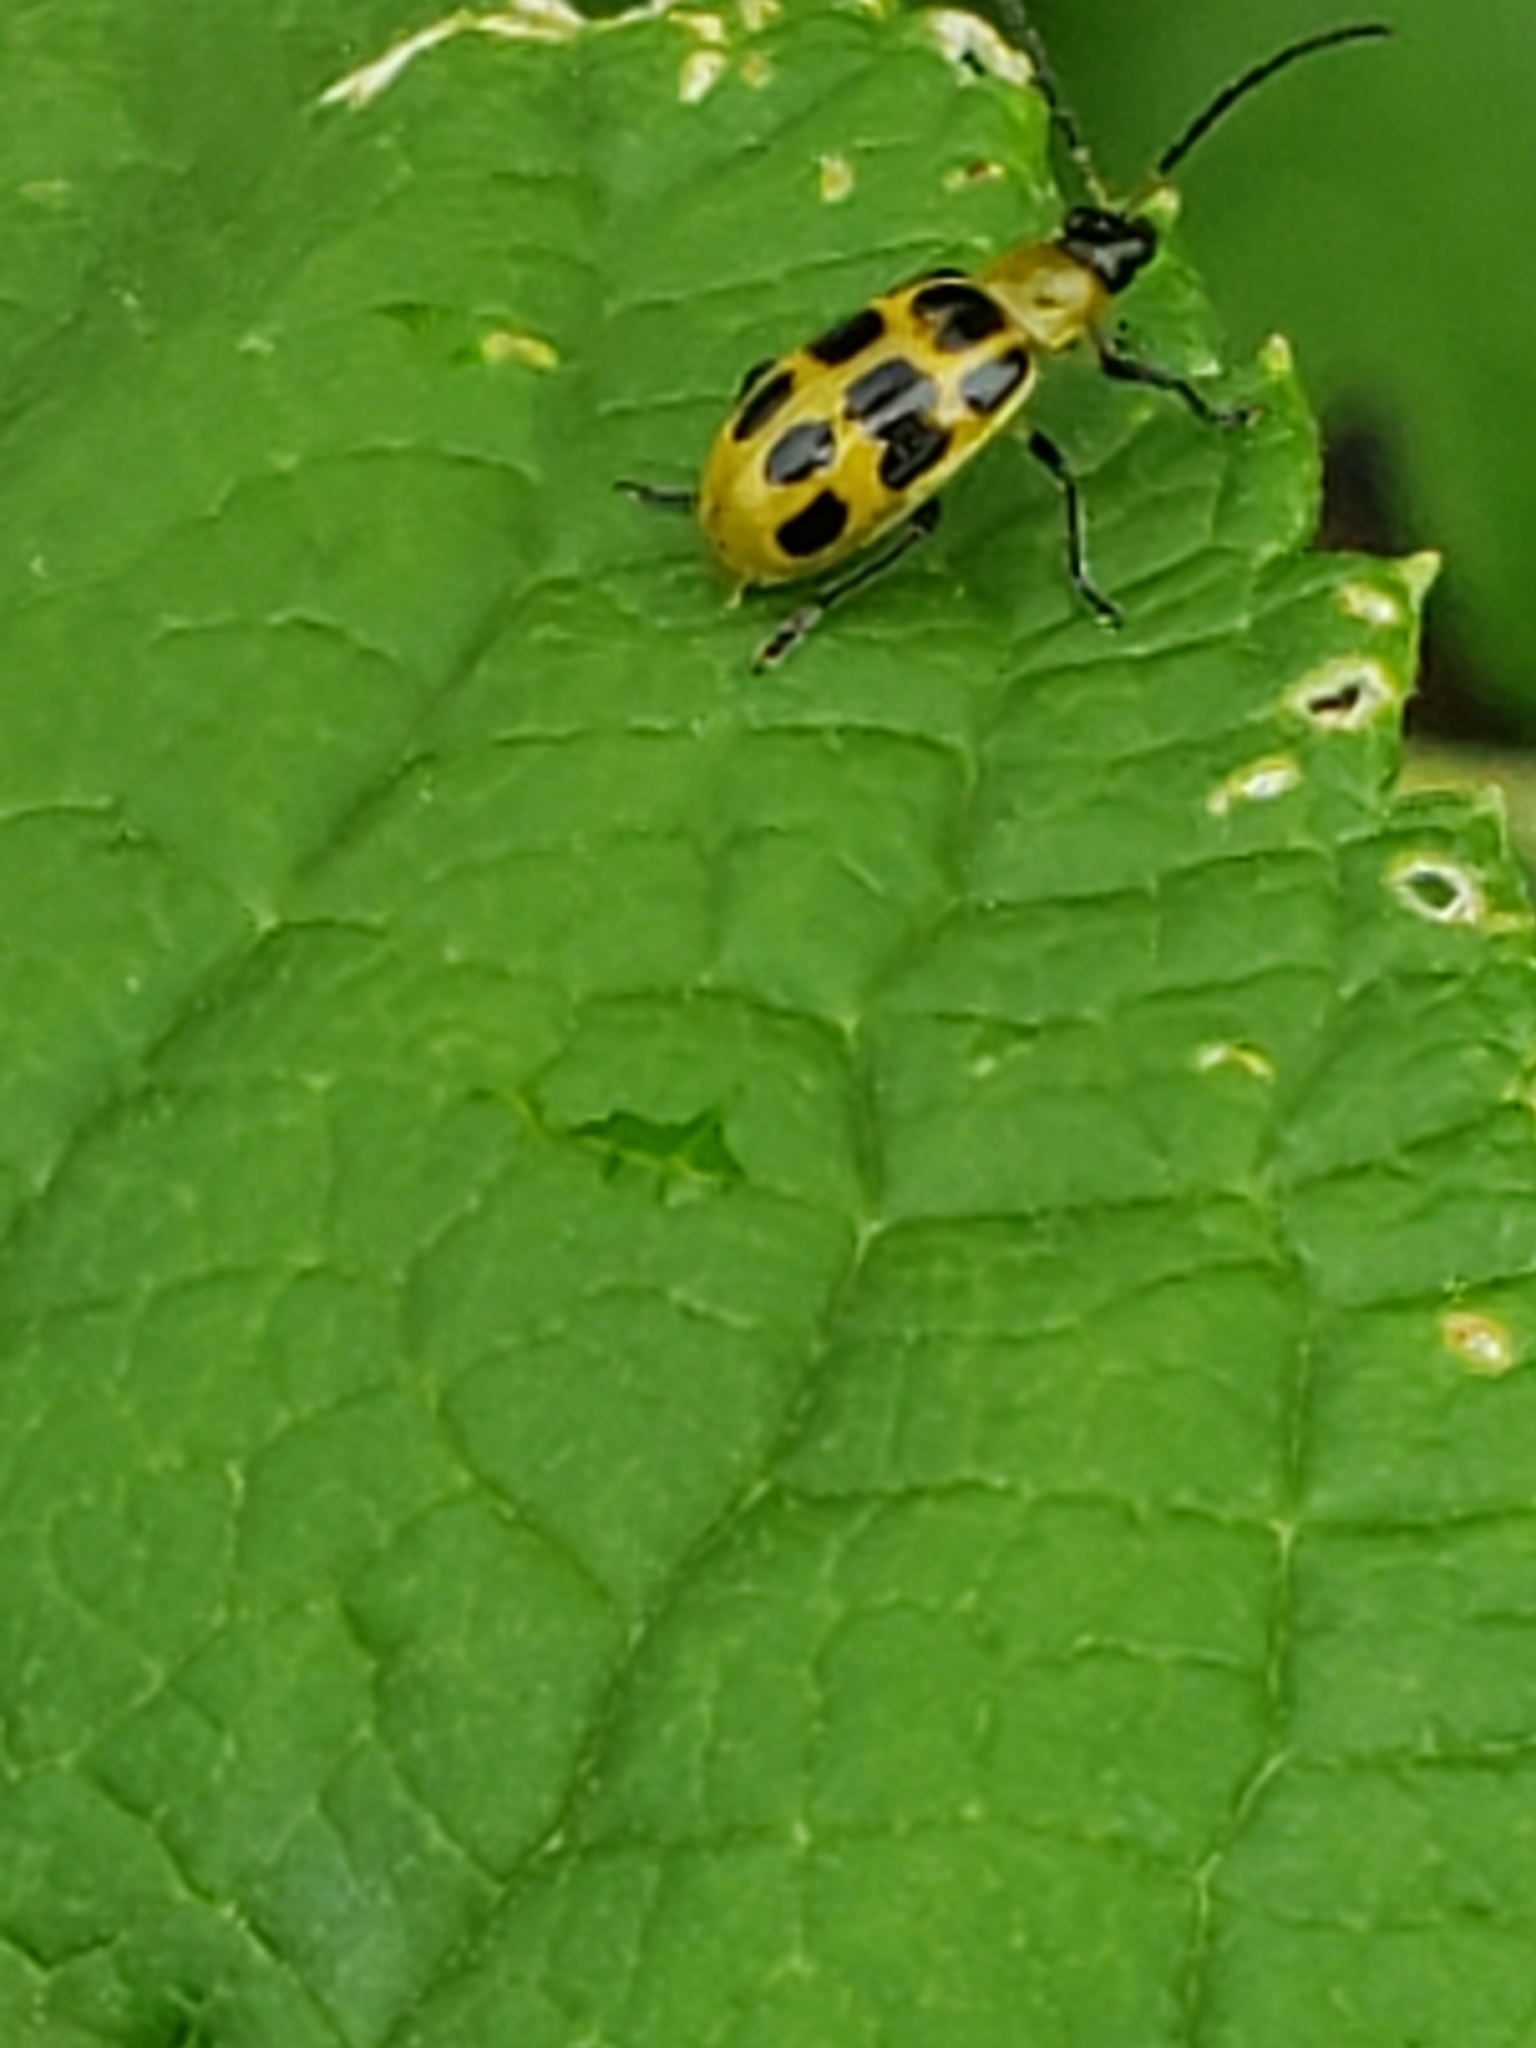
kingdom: Animalia
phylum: Arthropoda
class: Insecta
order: Coleoptera
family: Chrysomelidae
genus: Diabrotica
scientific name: Diabrotica undecimpunctata
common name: Spotted cucumber beetle
